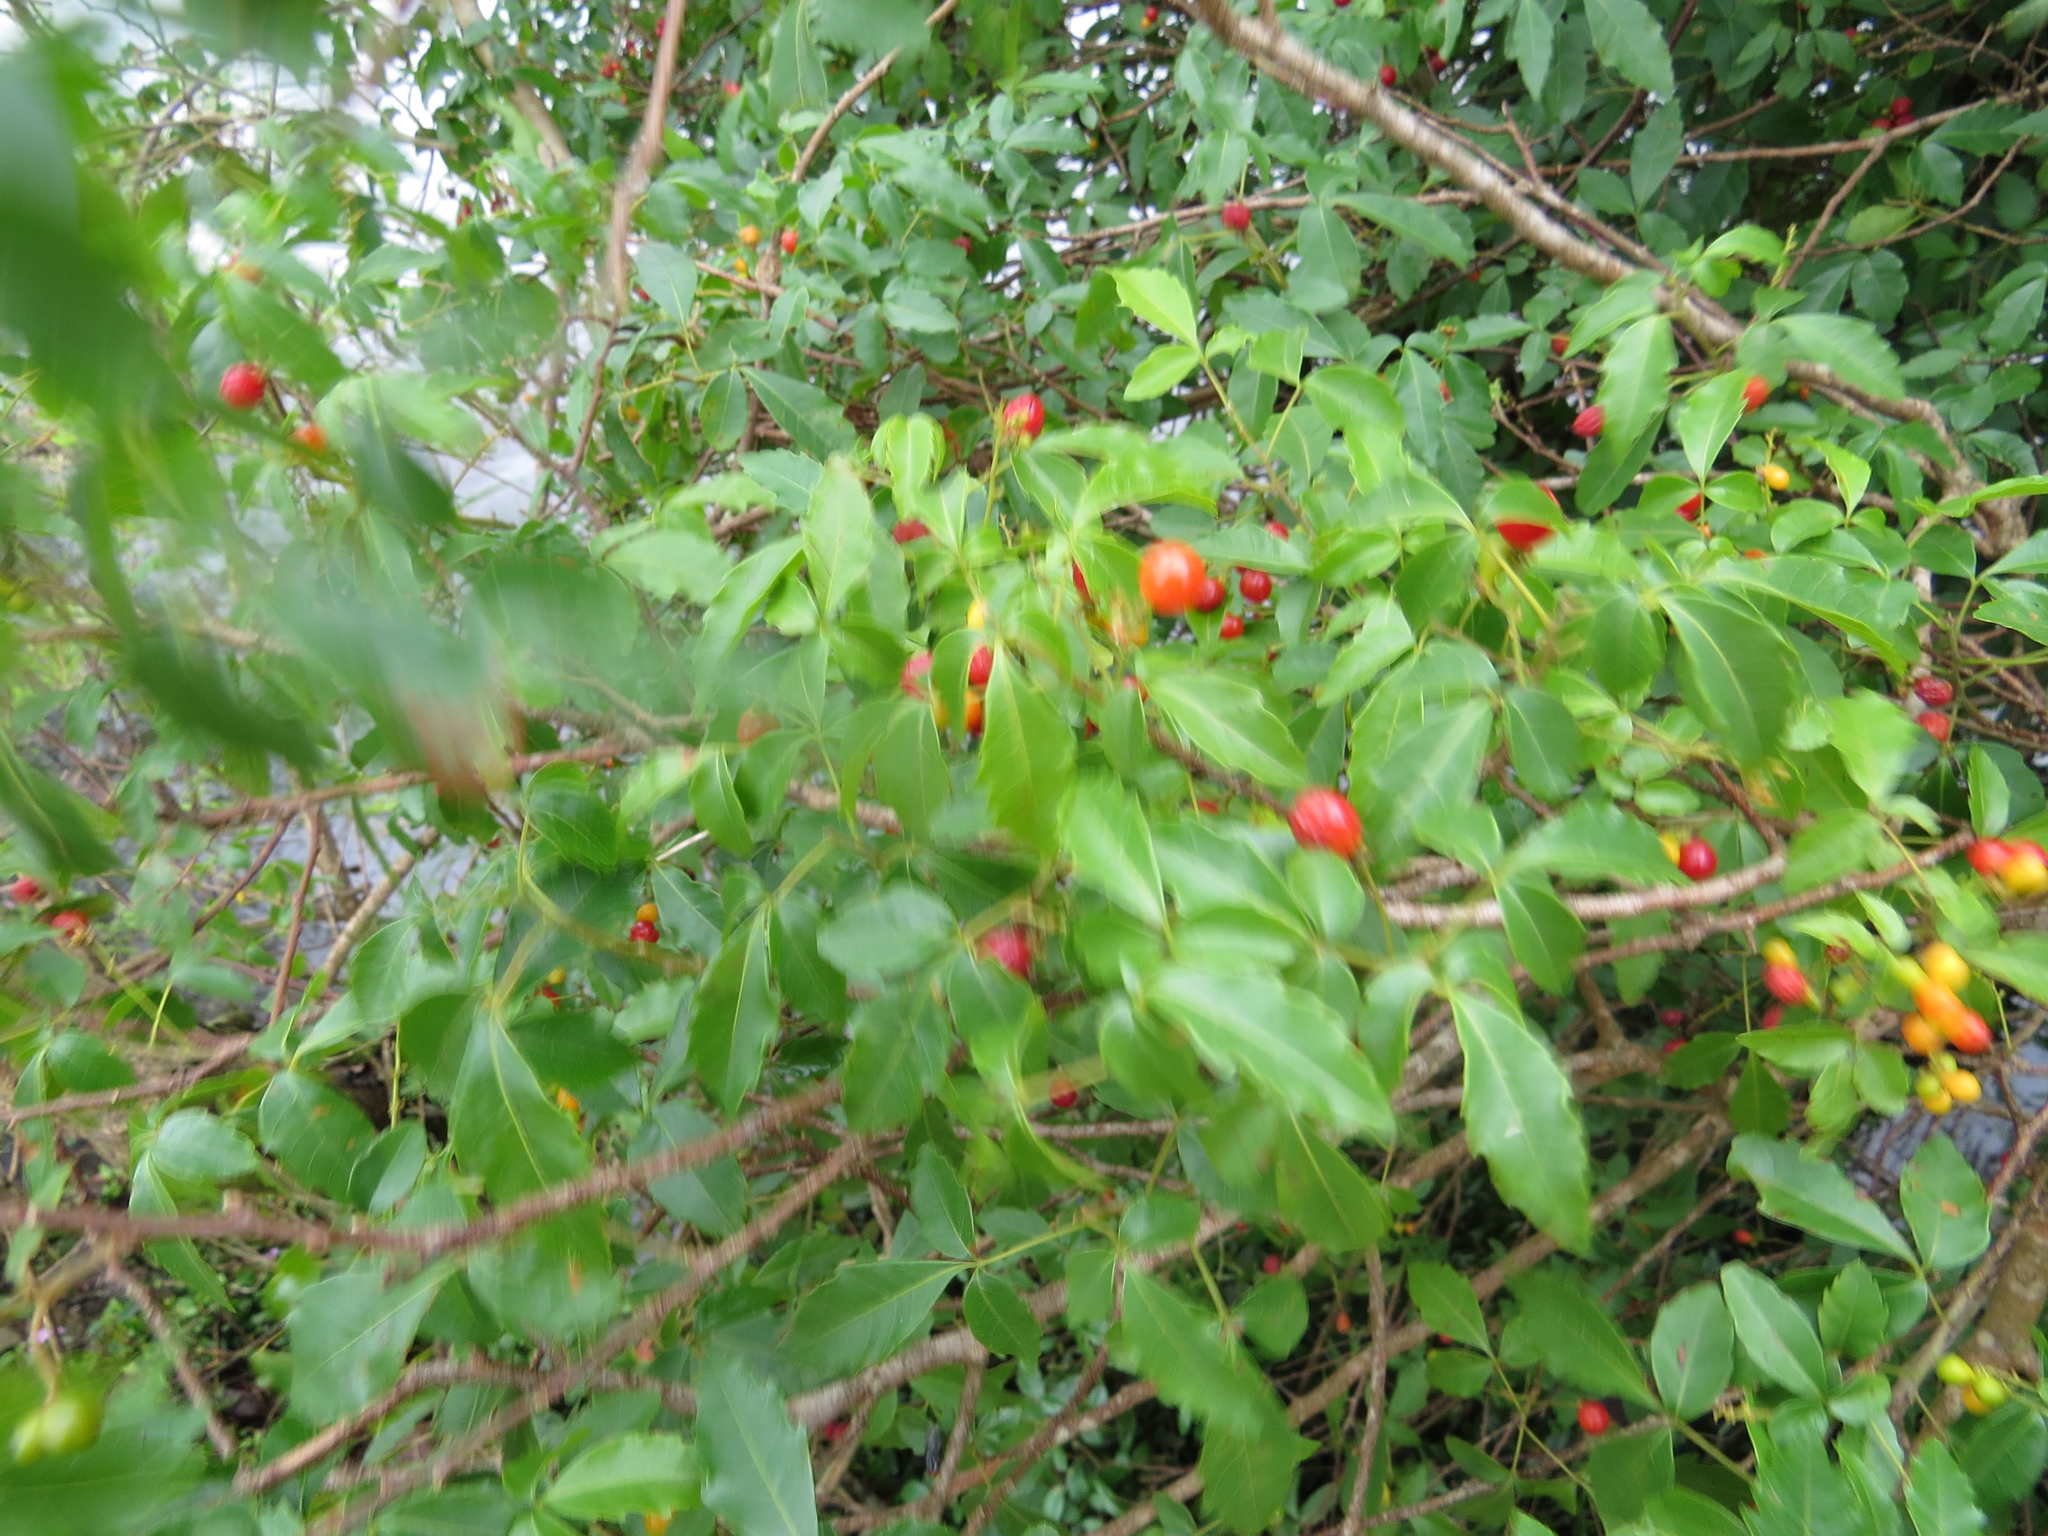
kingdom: Plantae
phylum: Tracheophyta
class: Magnoliopsida
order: Sapindales
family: Sapindaceae
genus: Allophylus
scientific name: Allophylus edulis
